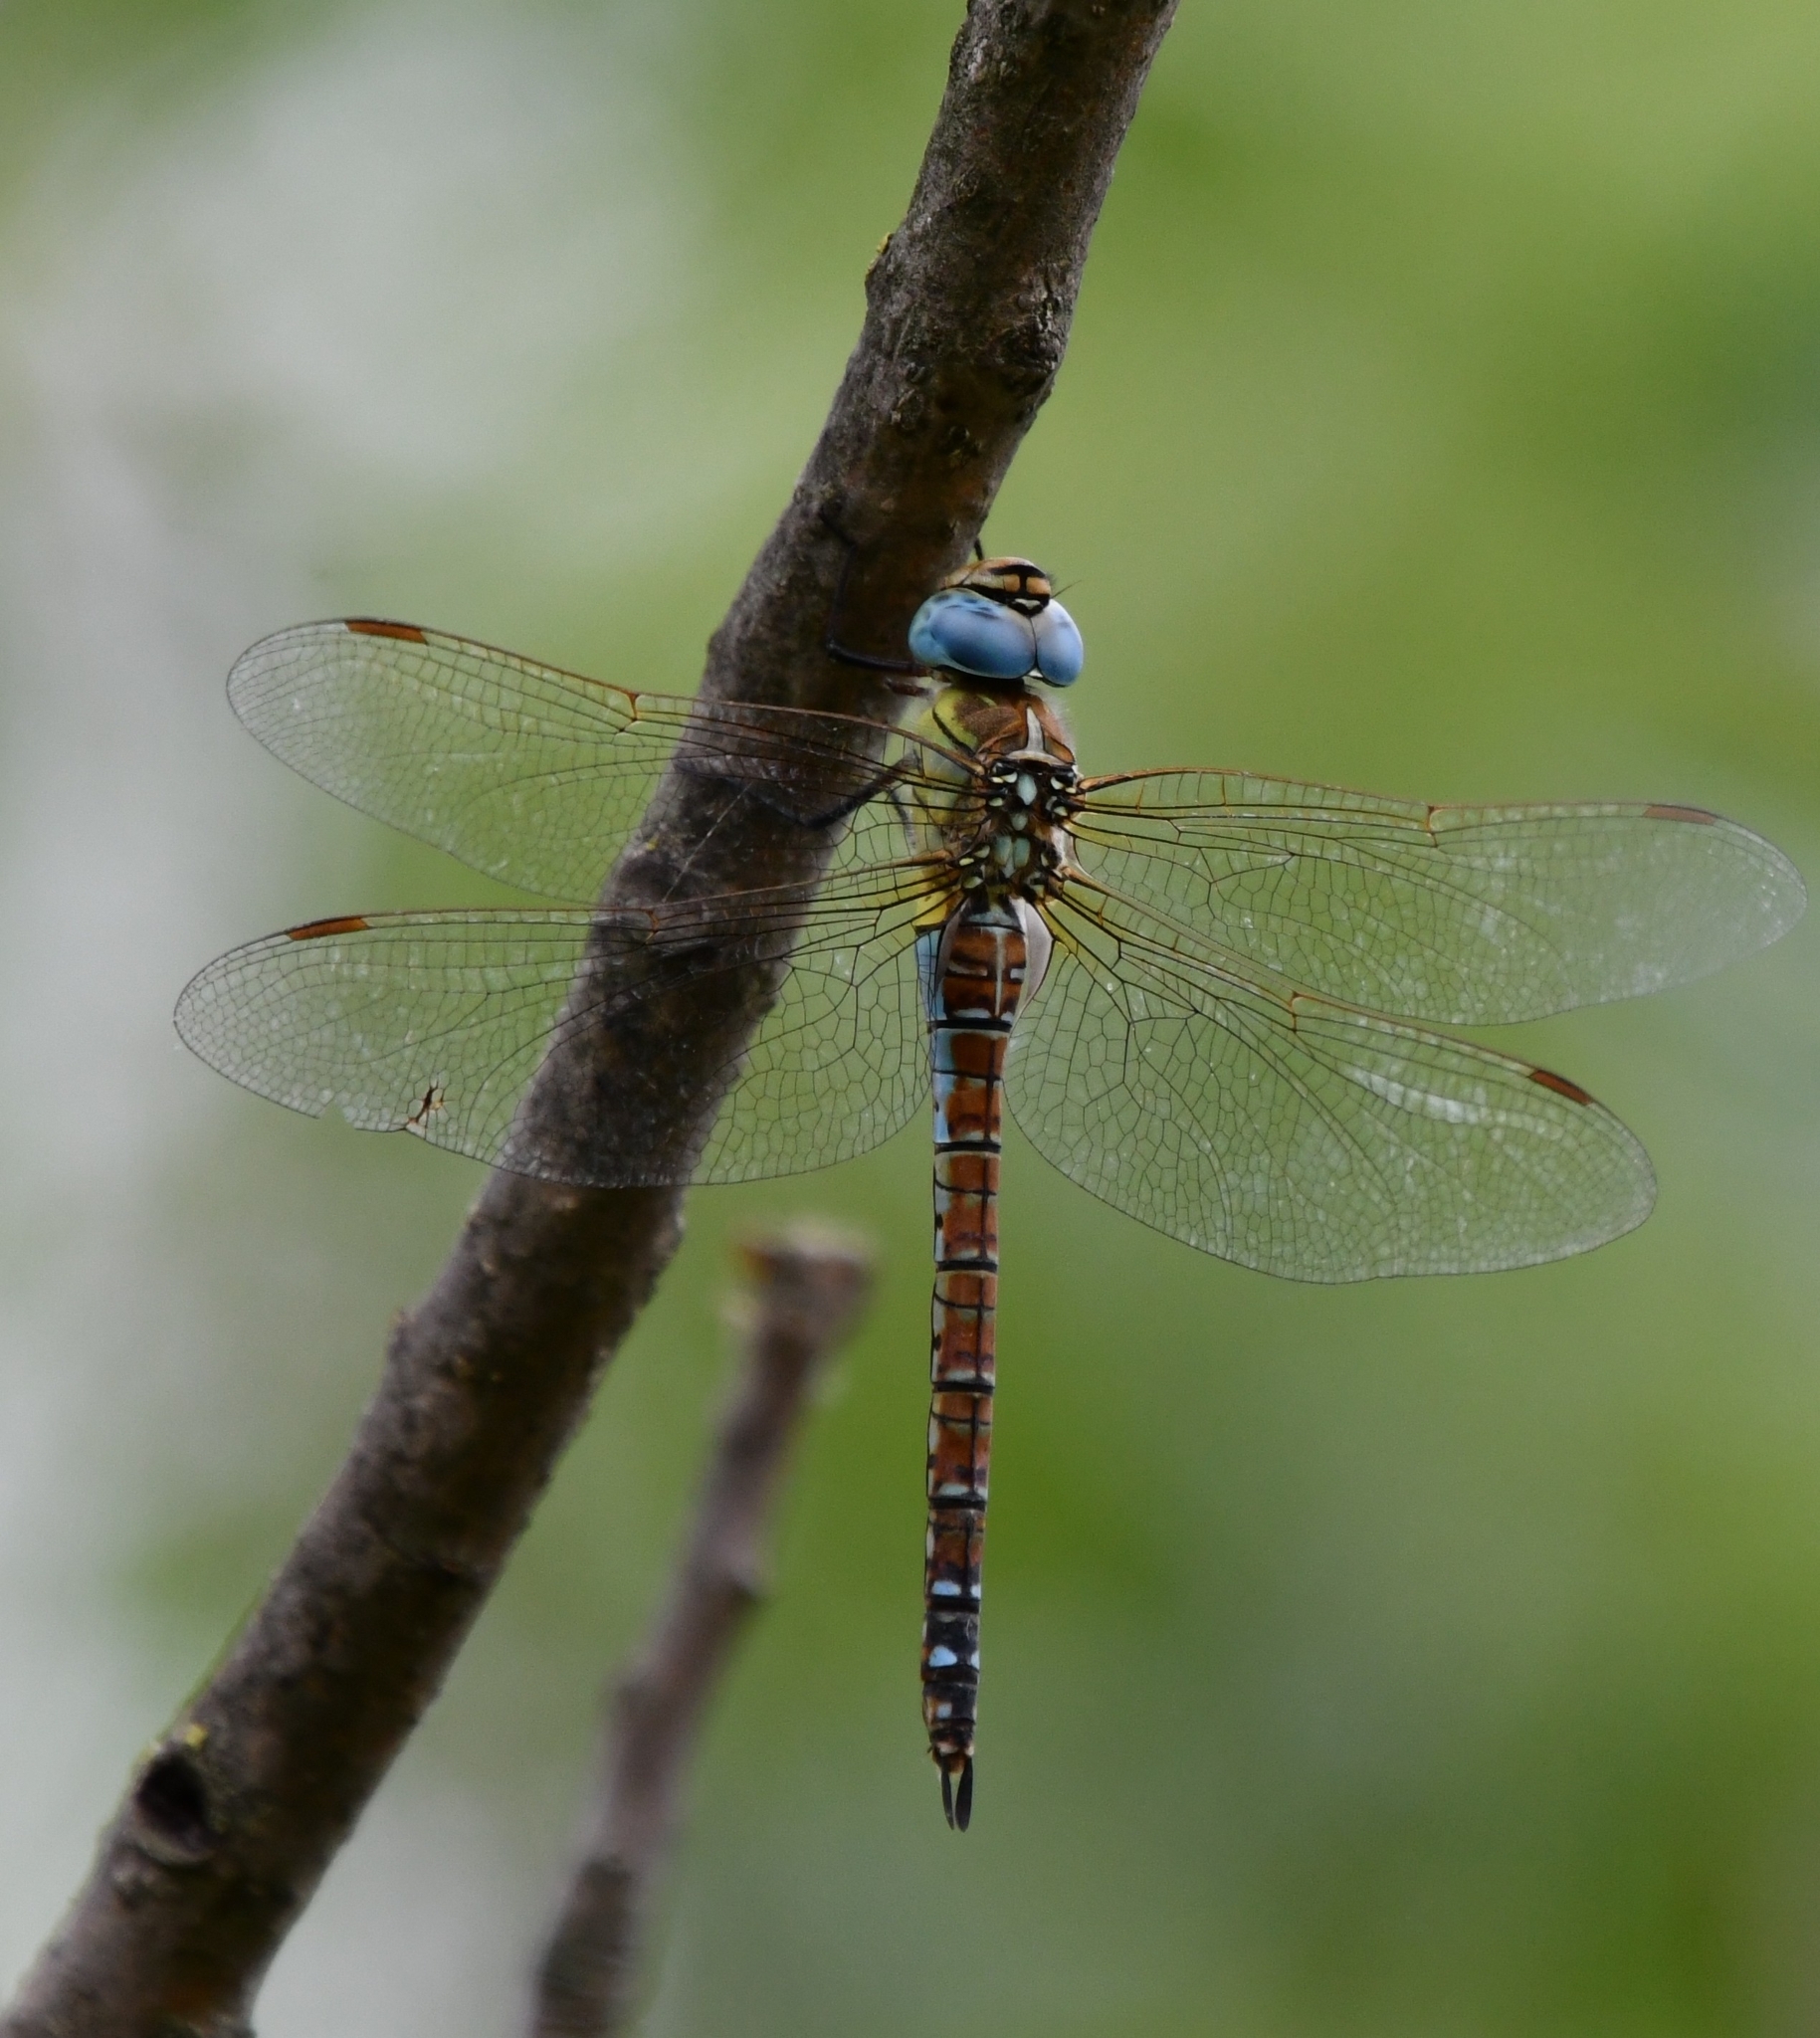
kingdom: Animalia
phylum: Arthropoda
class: Insecta
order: Odonata
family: Aeshnidae
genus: Aeshna
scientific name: Aeshna affinis
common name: Southern migrant hawker
